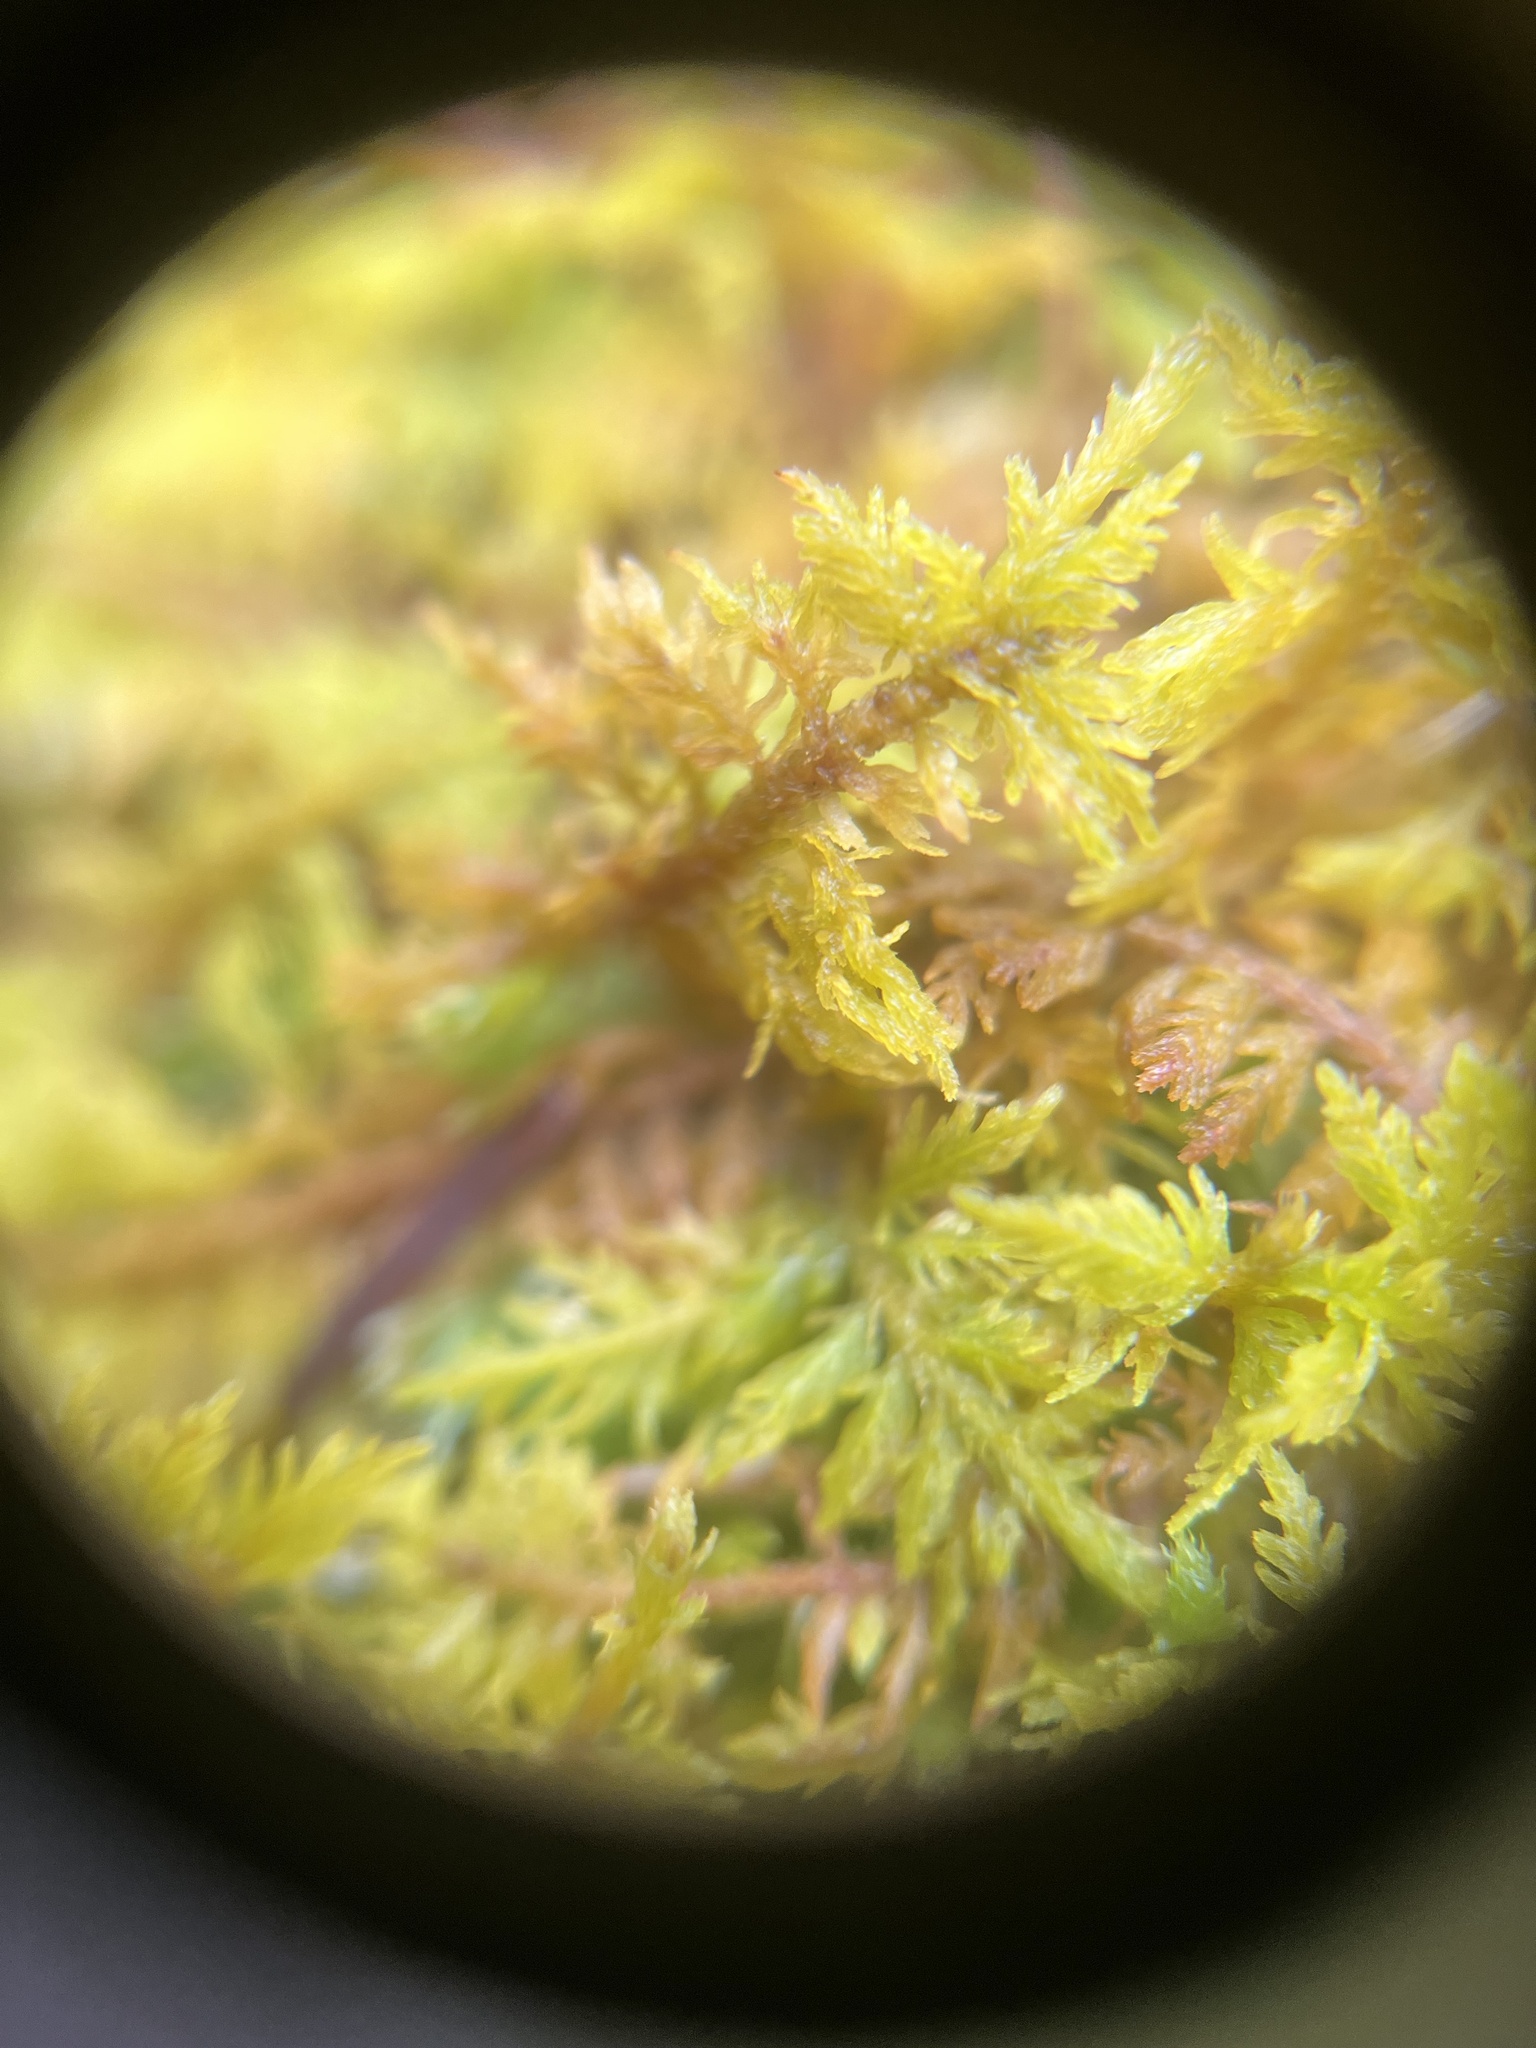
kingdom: Plantae
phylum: Bryophyta
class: Bryopsida
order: Hypnales
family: Thuidiaceae
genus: Thuidium
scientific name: Thuidium delicatulum
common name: Delicate fern moss
